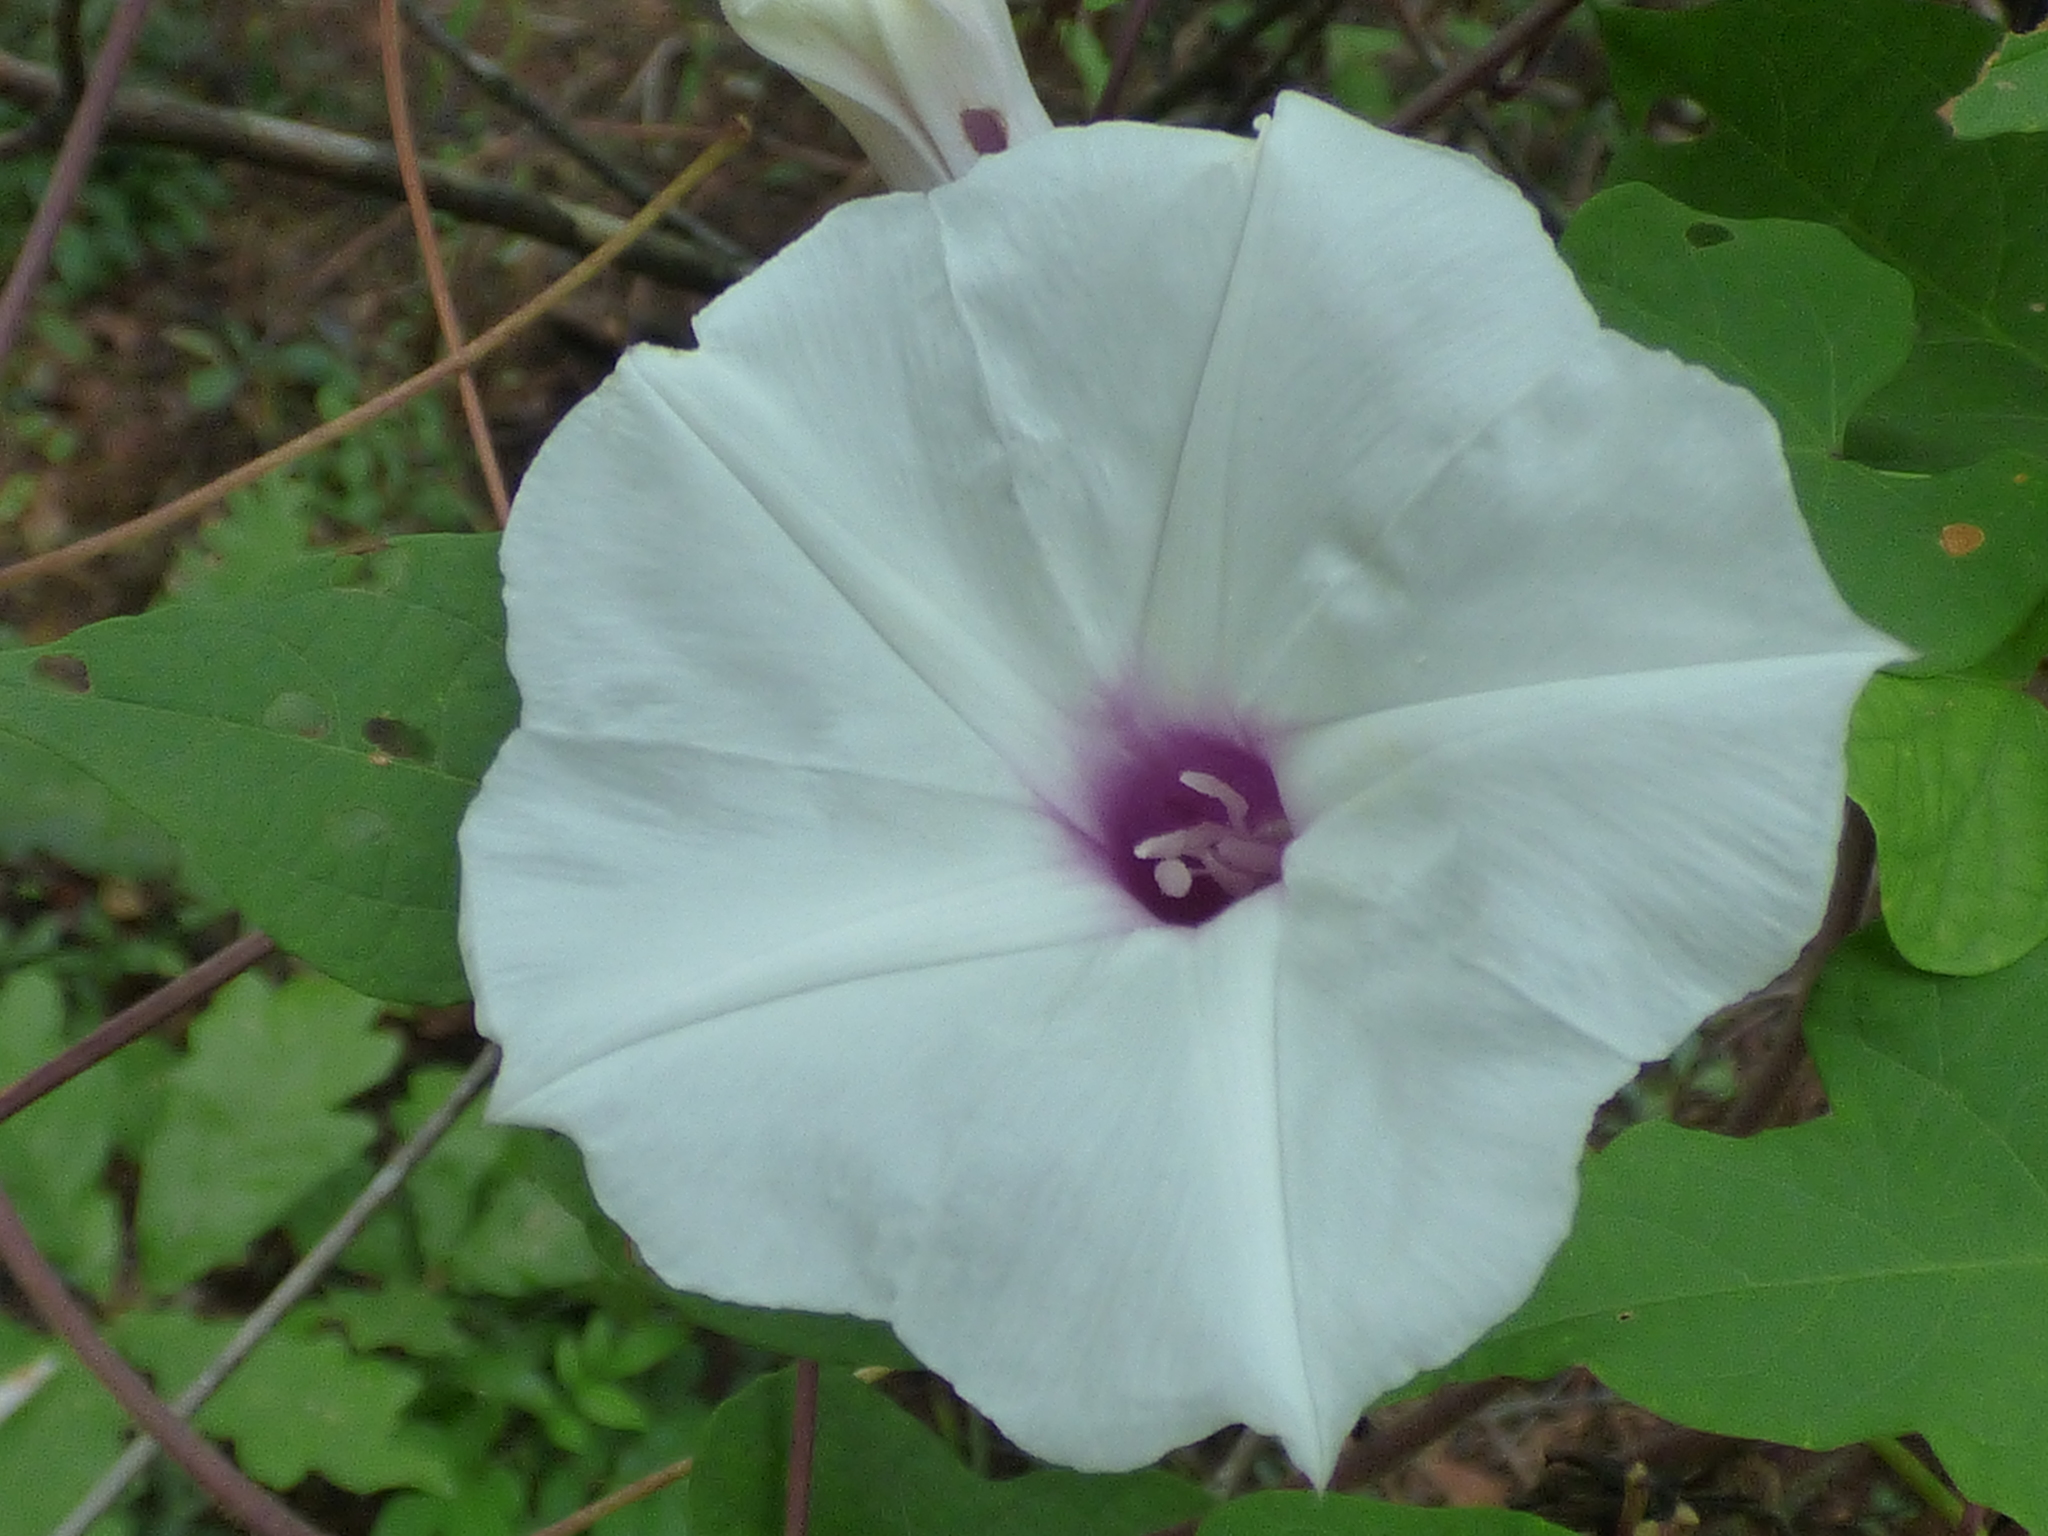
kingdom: Plantae
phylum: Tracheophyta
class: Magnoliopsida
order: Solanales
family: Convolvulaceae
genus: Ipomoea
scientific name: Ipomoea pandurata
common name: Man-of-the-earth
